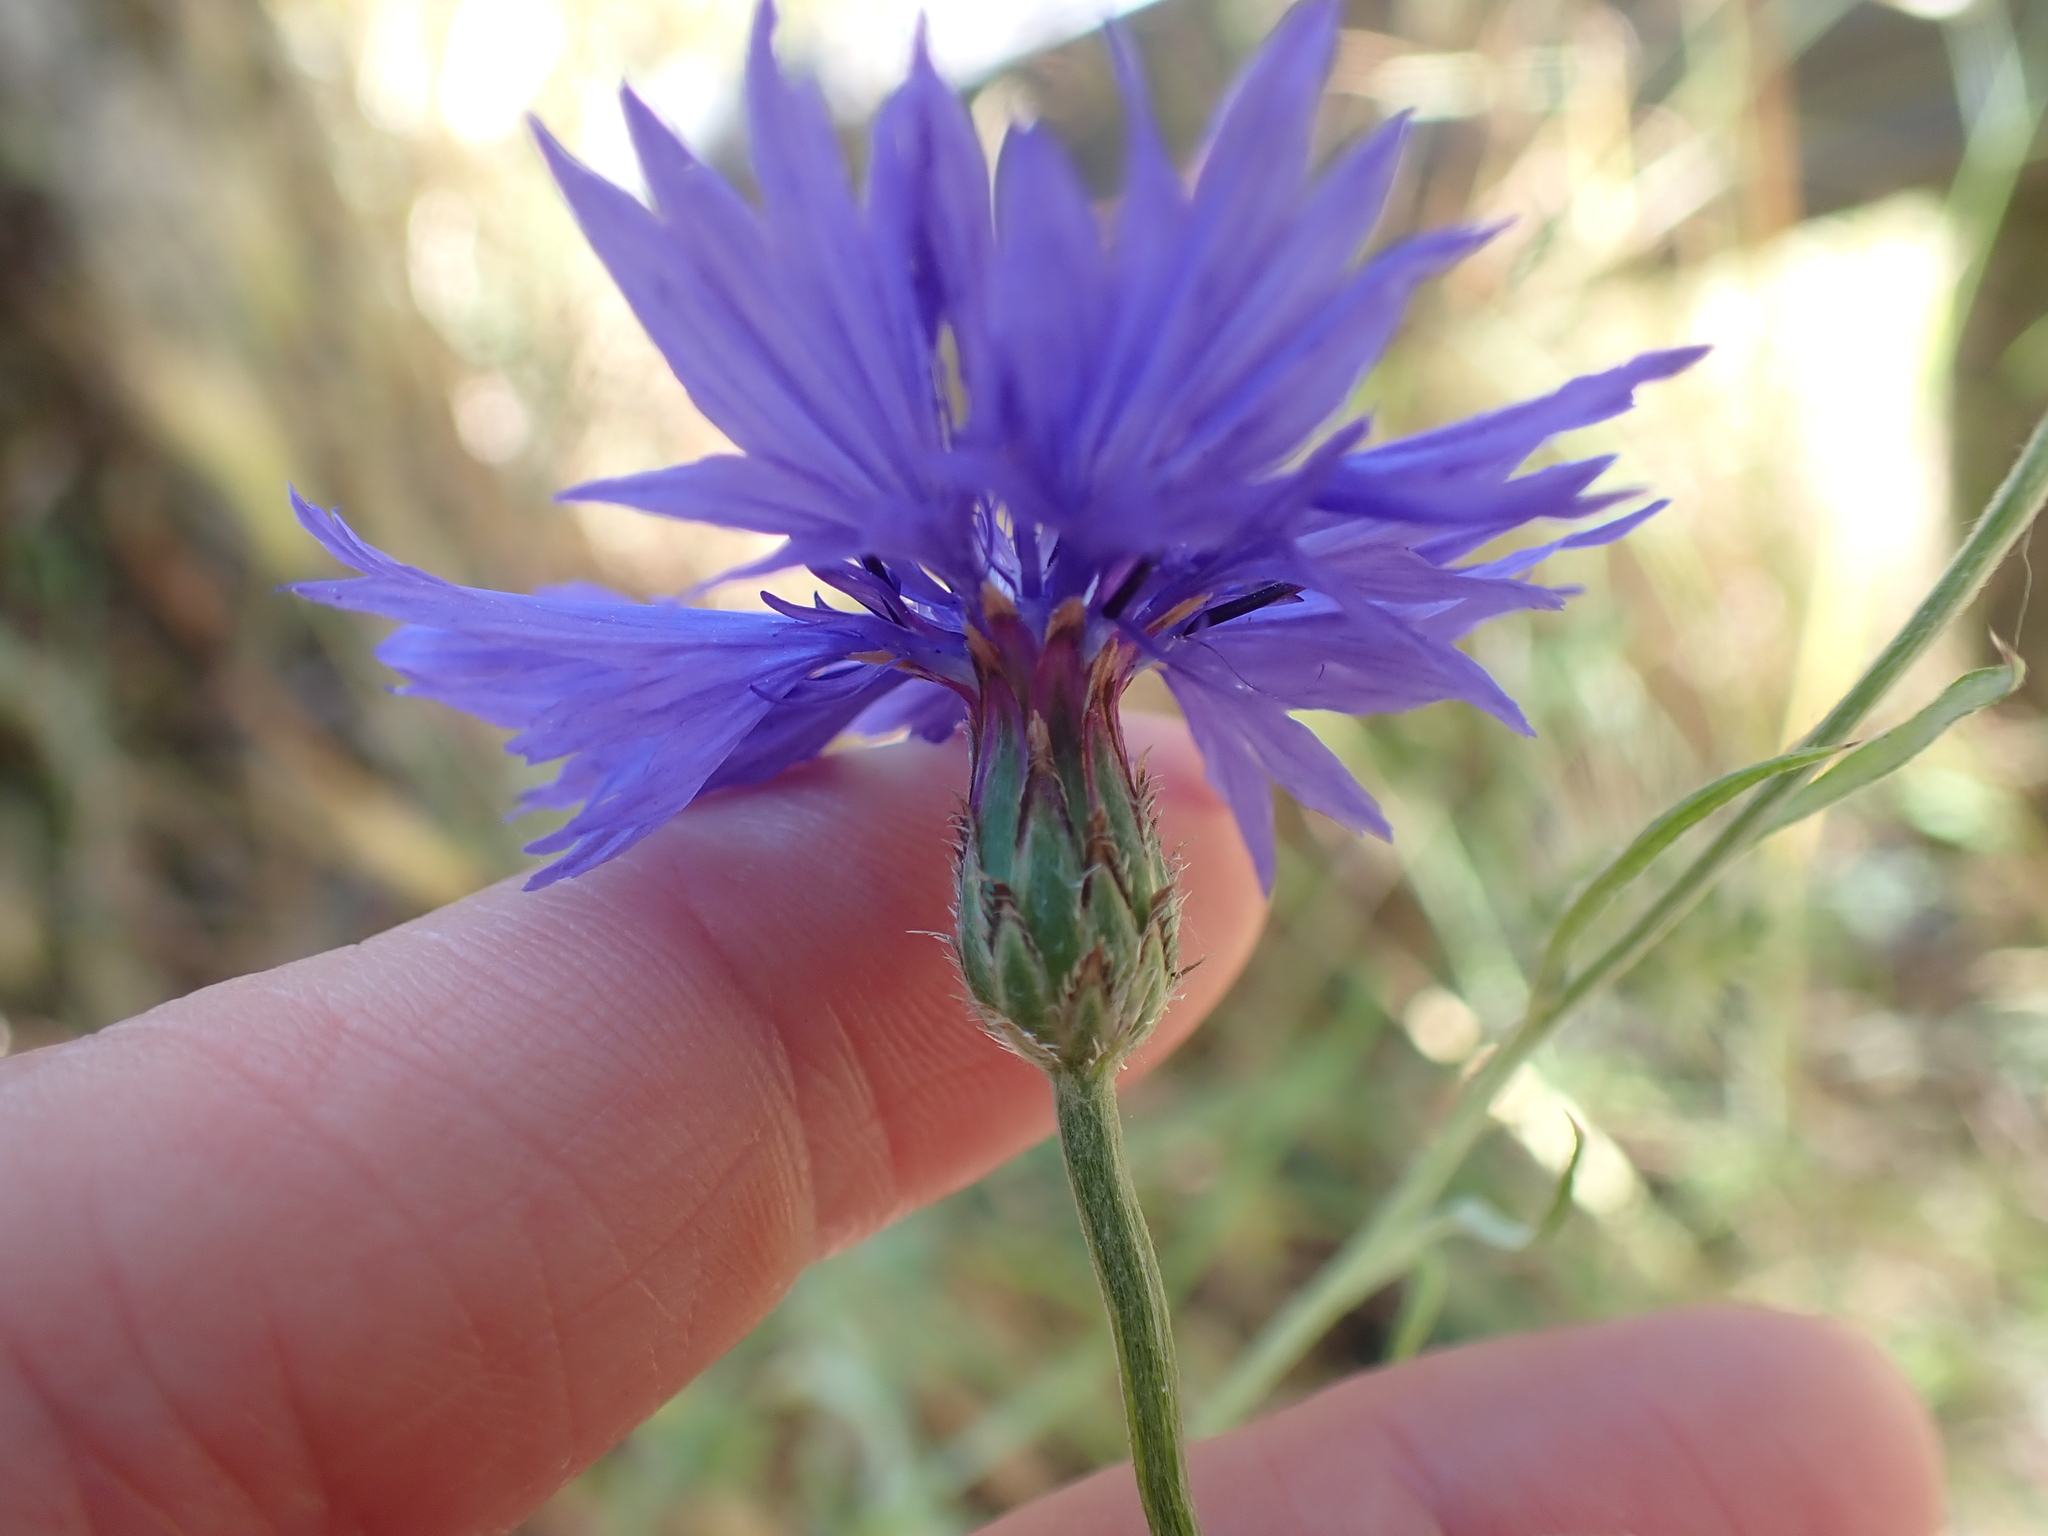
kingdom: Plantae
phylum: Tracheophyta
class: Magnoliopsida
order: Asterales
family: Asteraceae
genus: Centaurea
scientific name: Centaurea cyanus
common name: Cornflower
